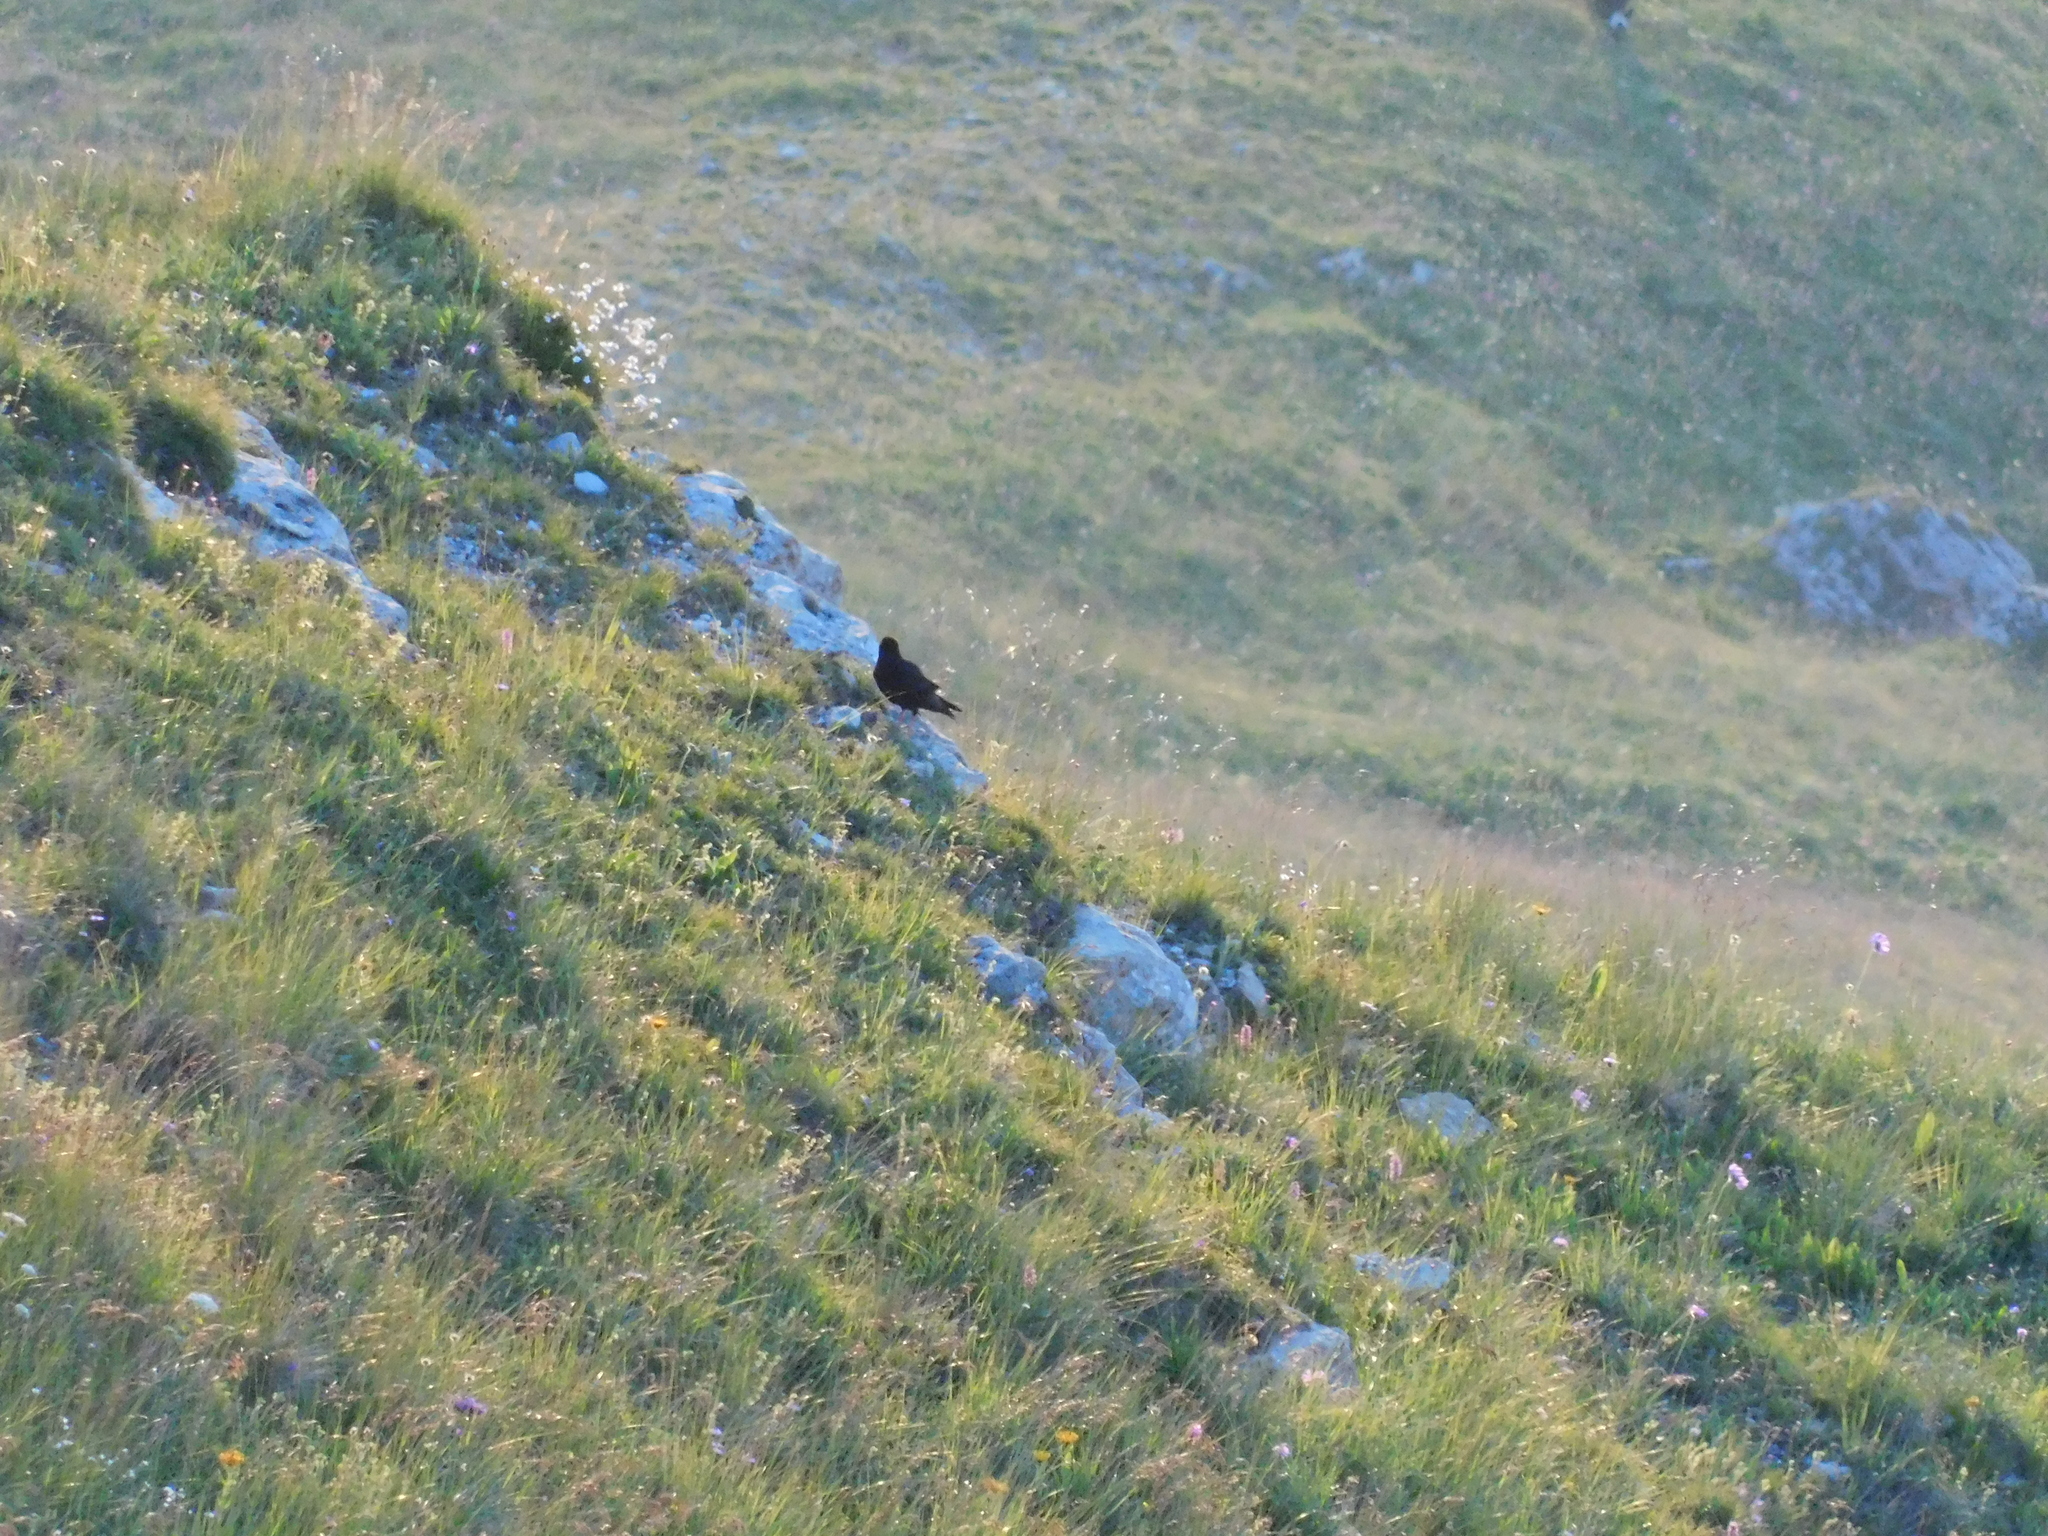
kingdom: Animalia
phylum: Chordata
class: Aves
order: Passeriformes
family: Corvidae
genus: Pyrrhocorax
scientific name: Pyrrhocorax graculus
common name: Alpine chough
